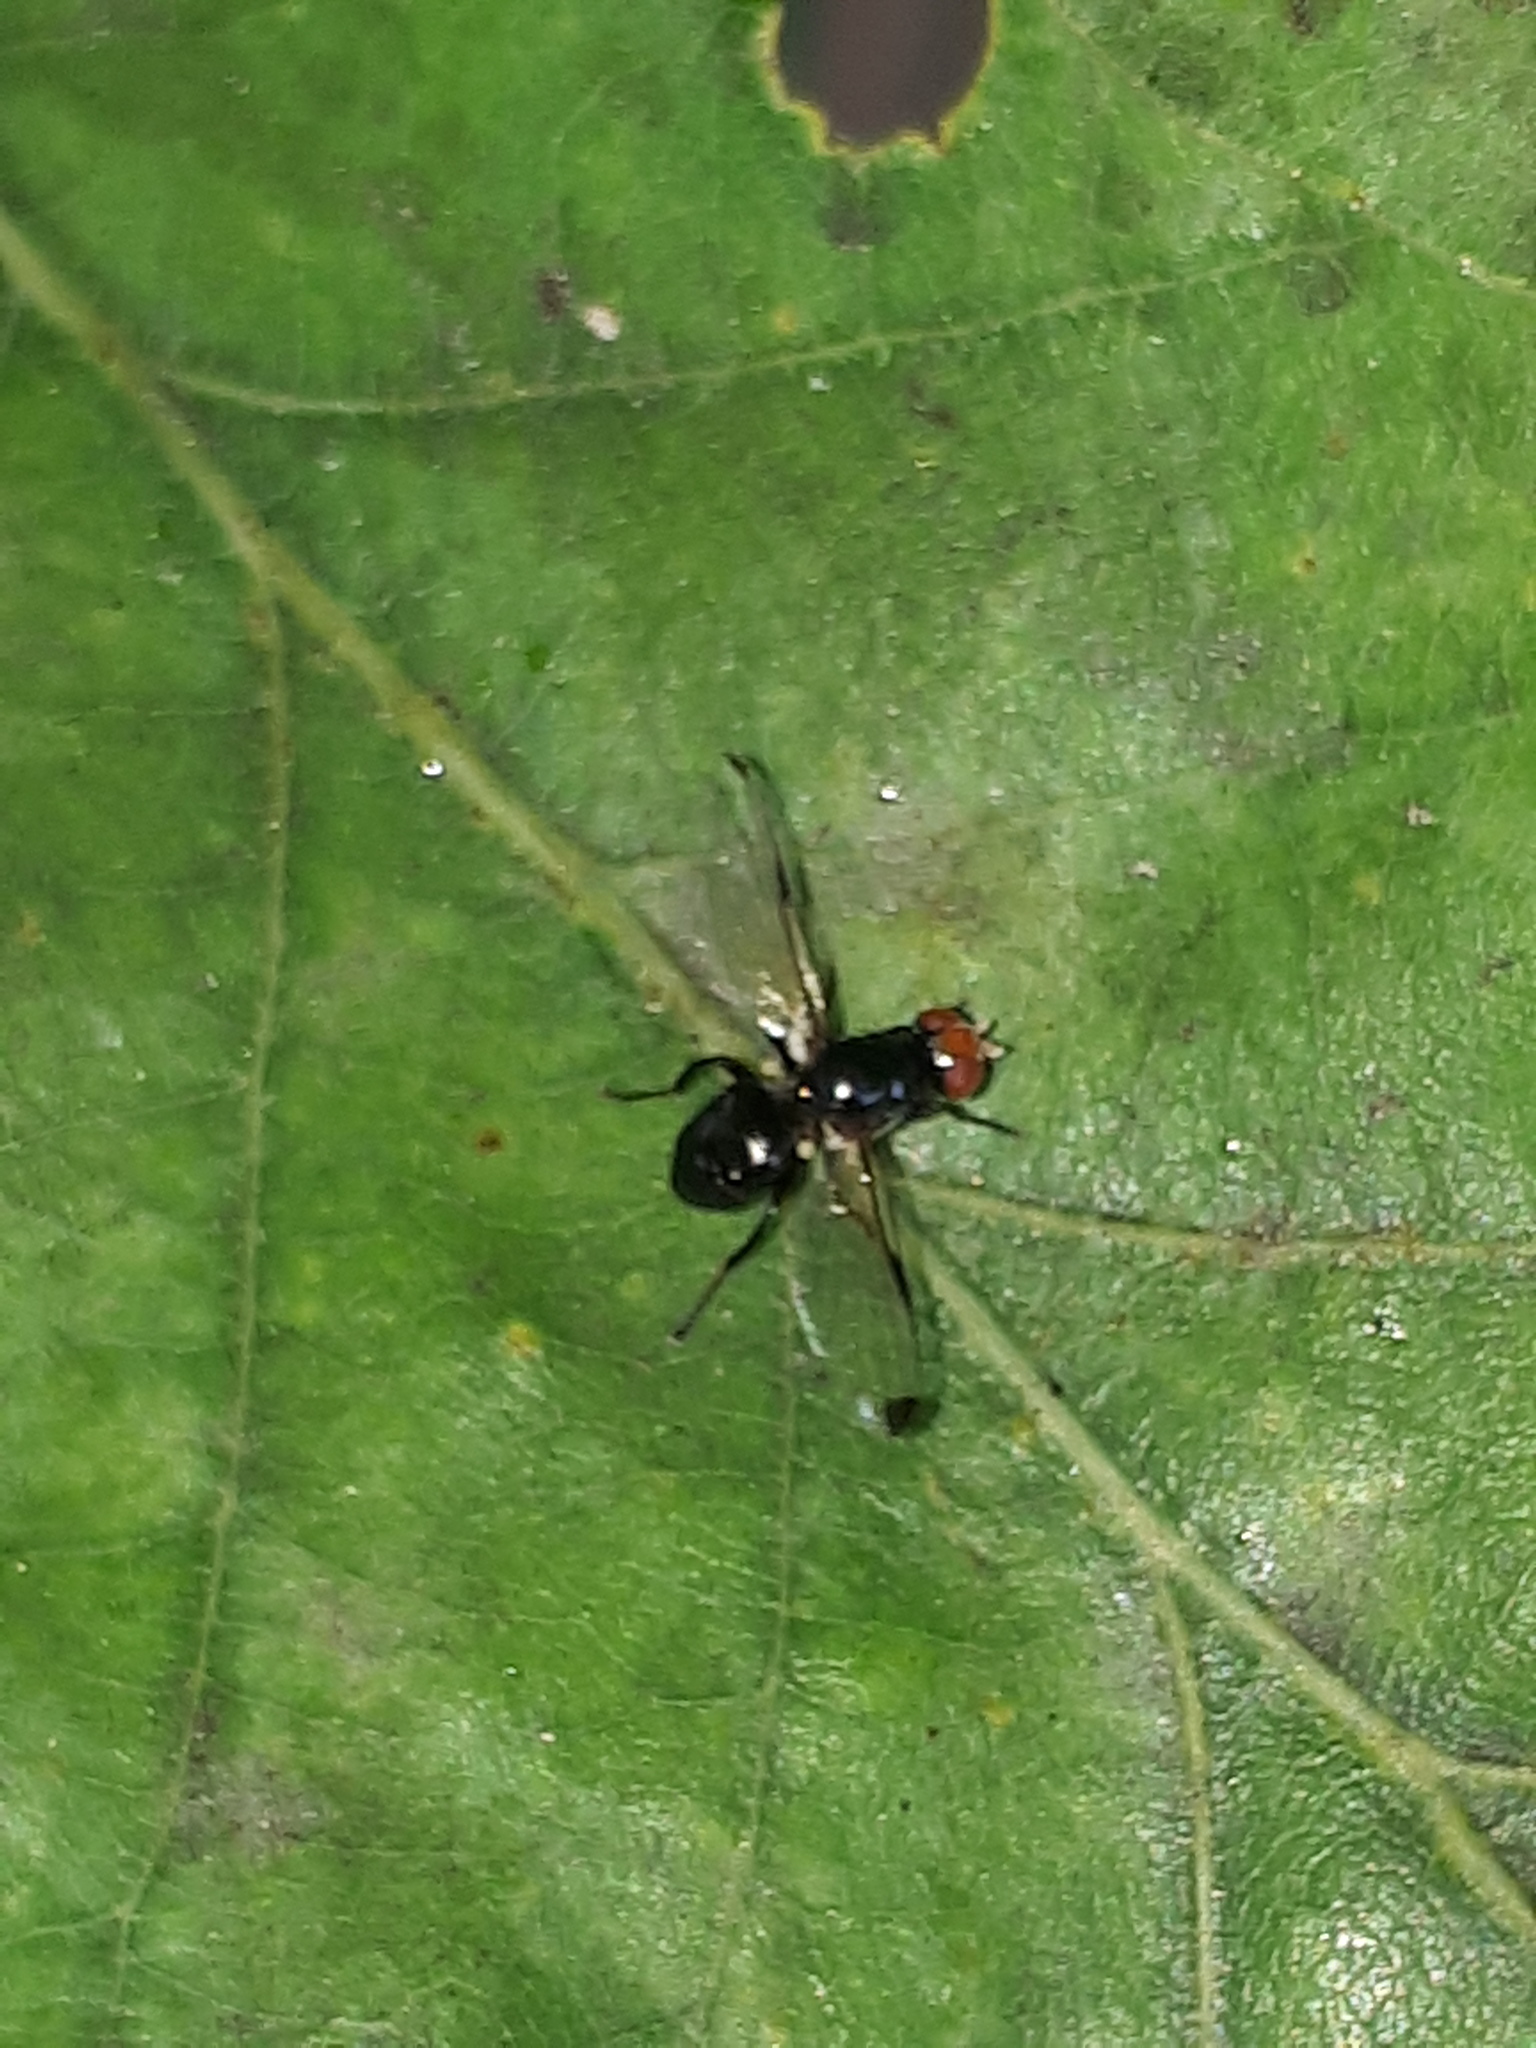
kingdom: Animalia
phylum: Arthropoda
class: Insecta
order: Diptera
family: Ulidiidae
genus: Seioptera
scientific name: Seioptera vibrans
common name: Dark-tipped wingwaver
